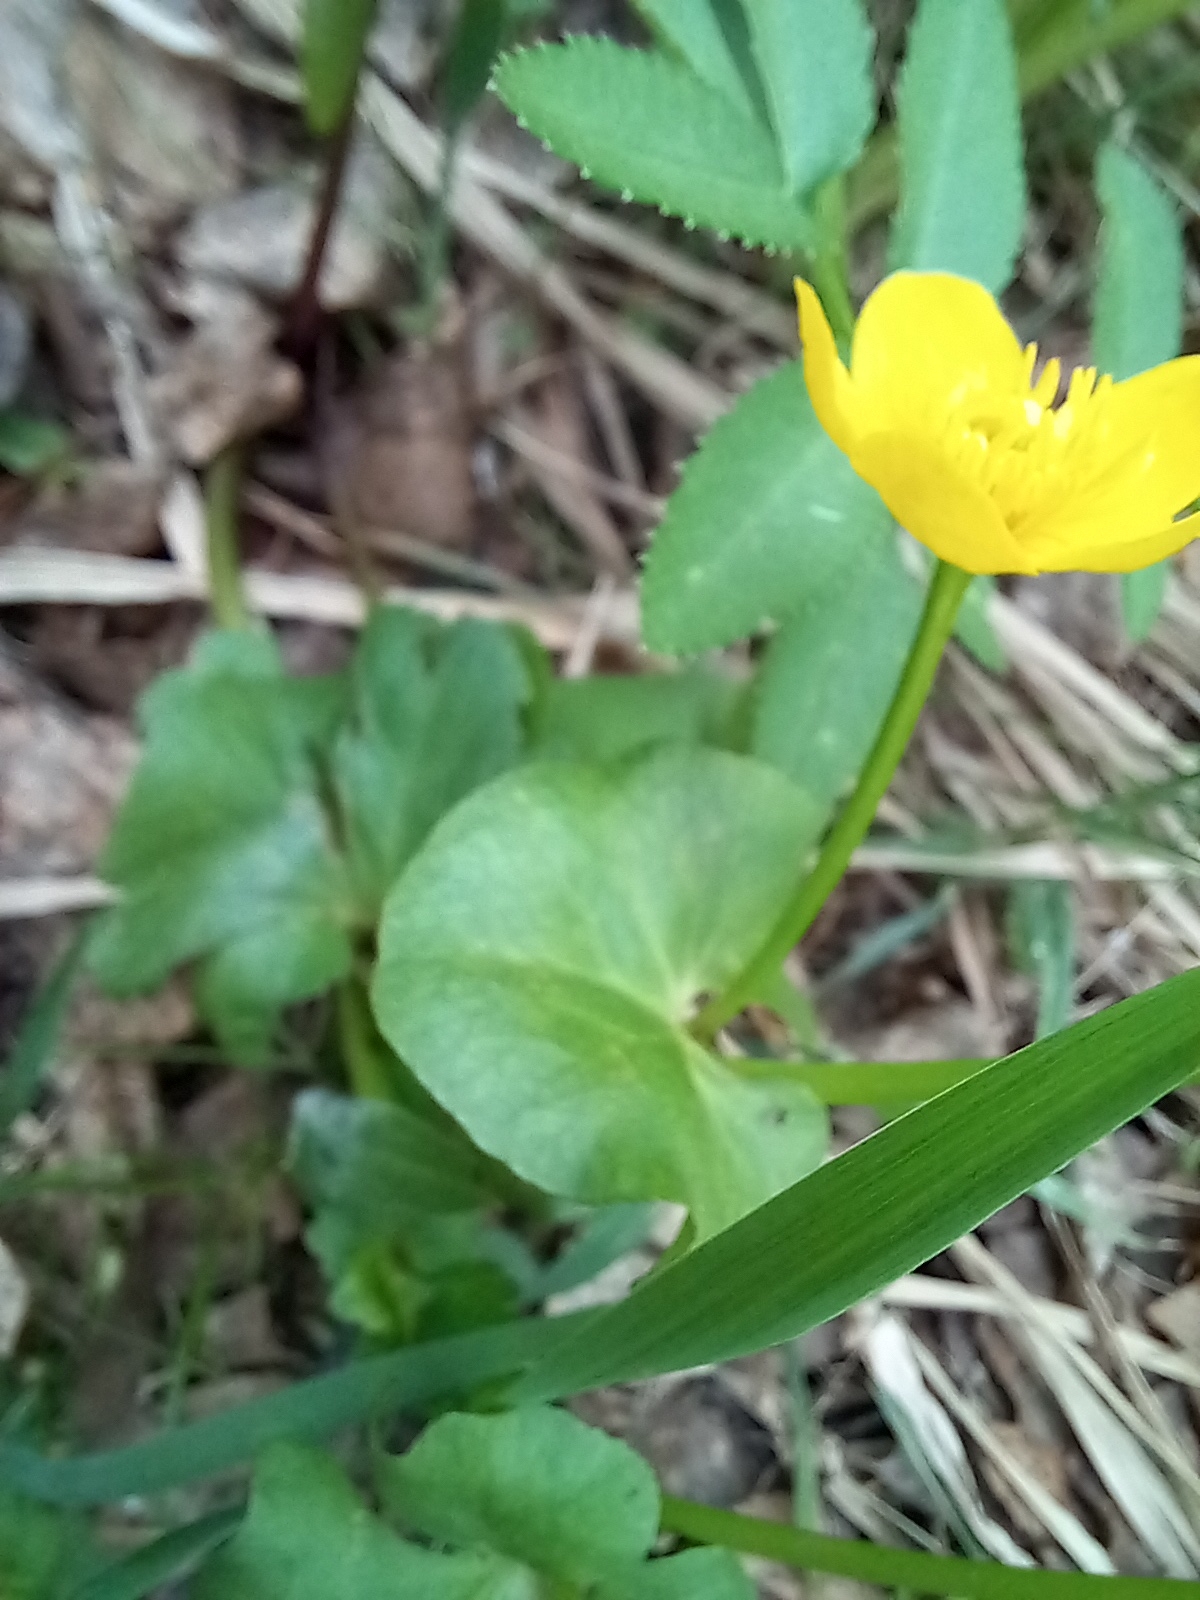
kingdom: Plantae
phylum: Tracheophyta
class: Magnoliopsida
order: Ranunculales
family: Ranunculaceae
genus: Caltha
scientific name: Caltha palustris
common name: Marsh marigold
